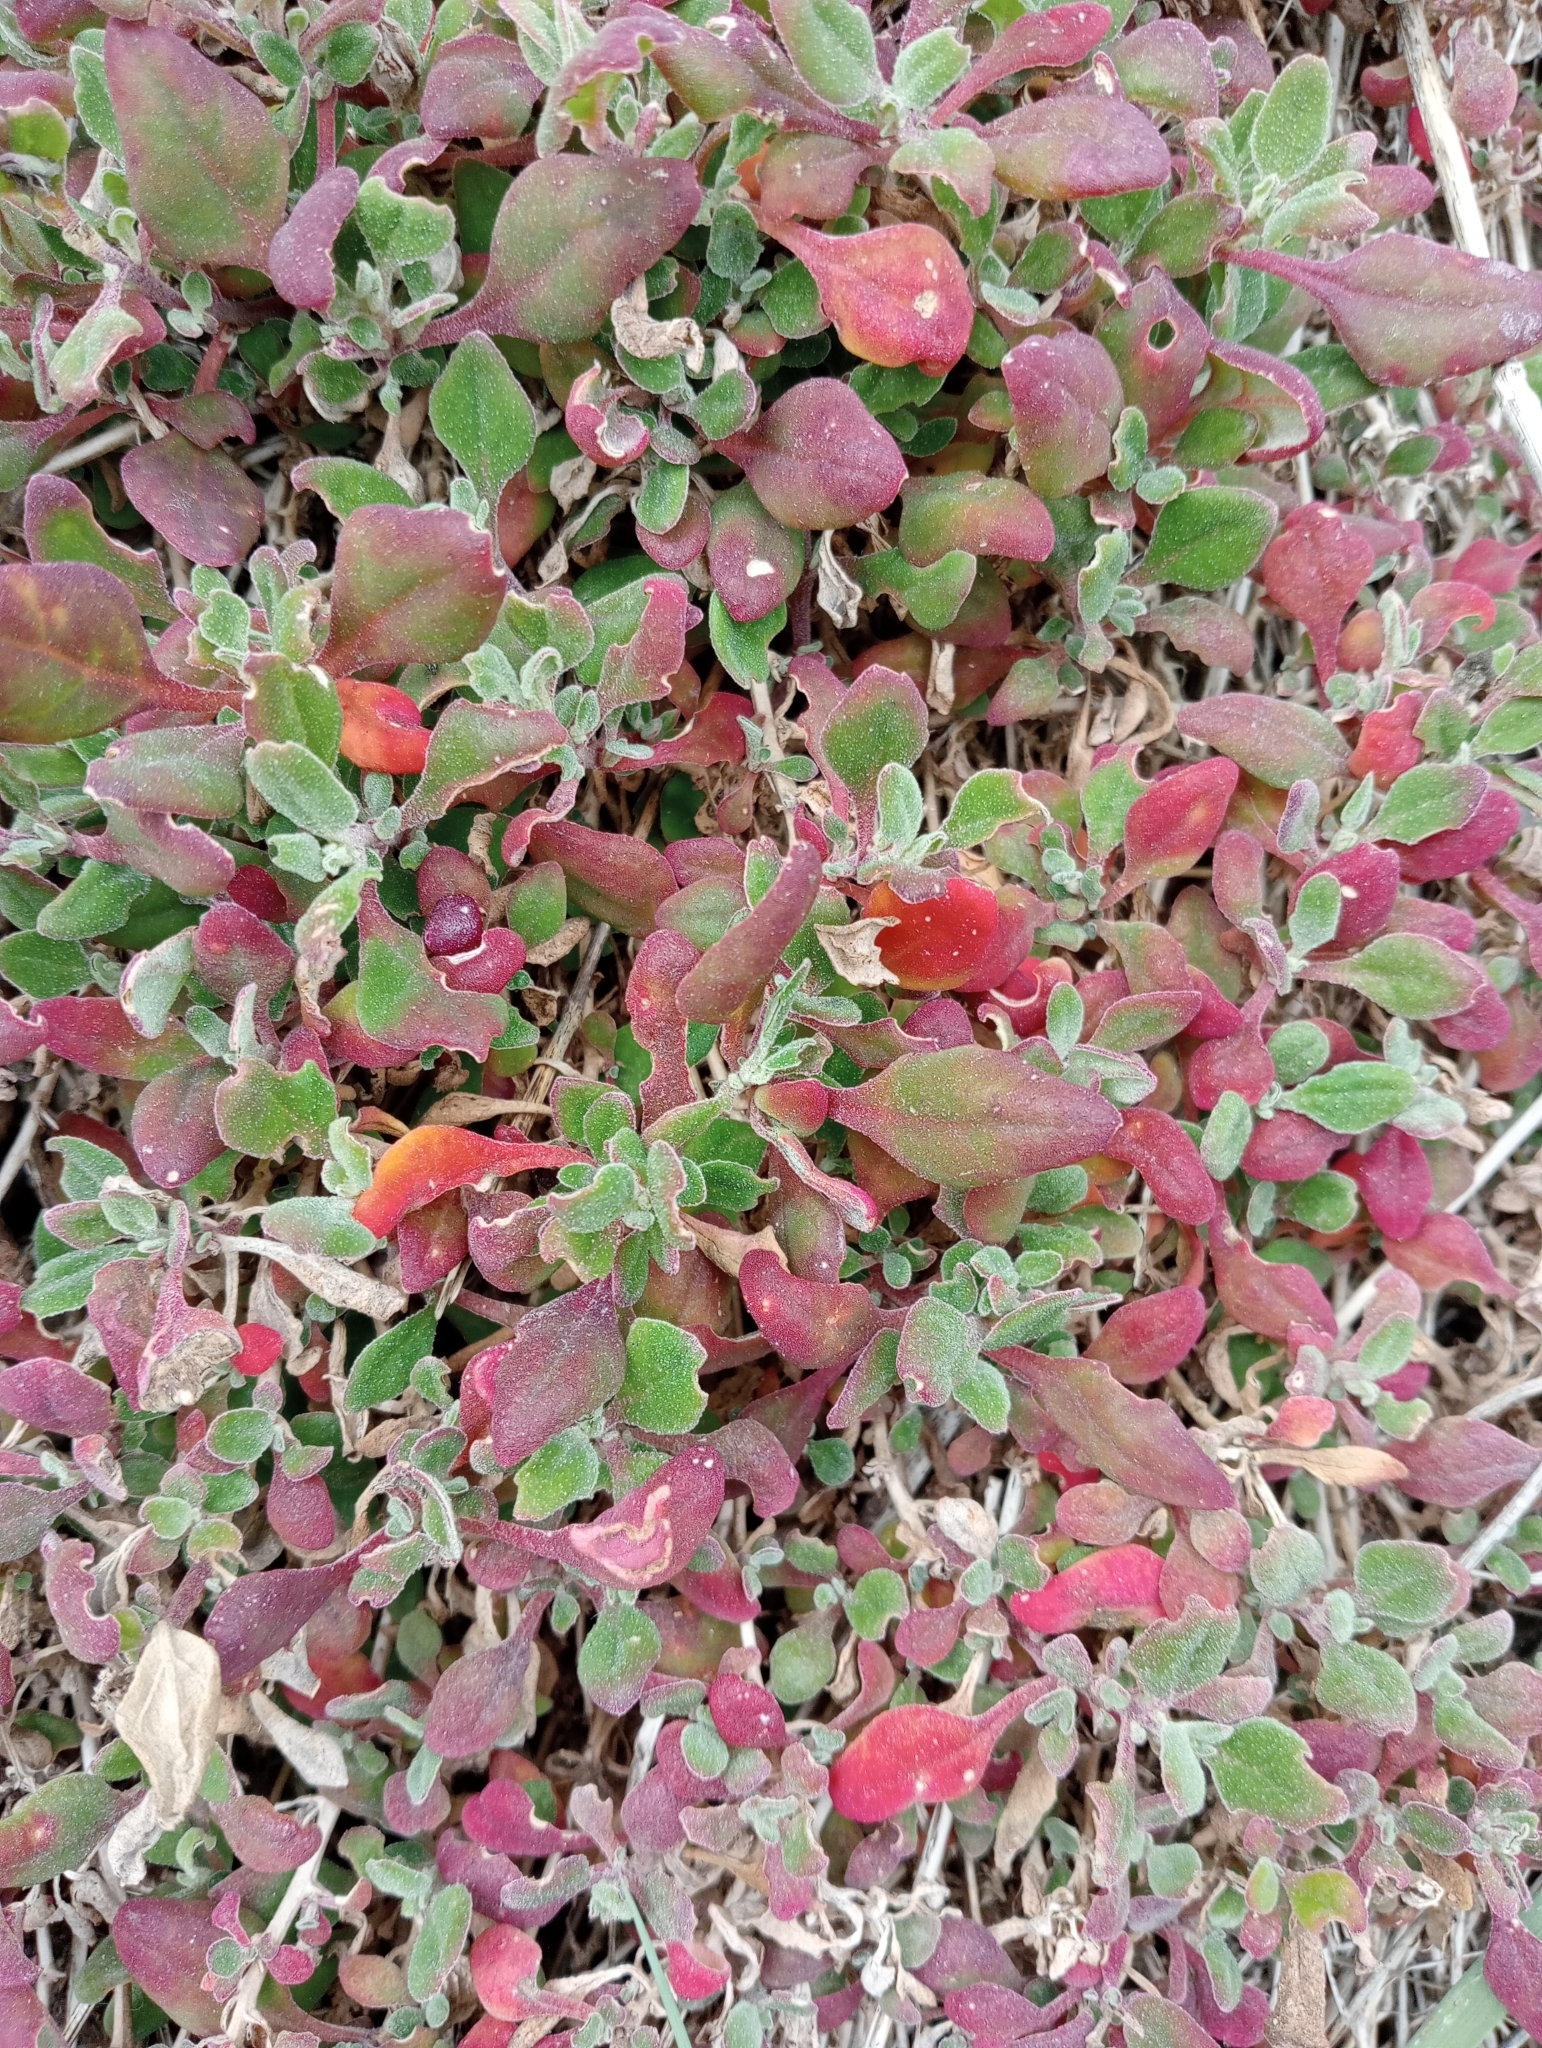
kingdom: Plantae
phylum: Tracheophyta
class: Magnoliopsida
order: Caryophyllales
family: Aizoaceae
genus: Tetragonia
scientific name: Tetragonia implexicoma
